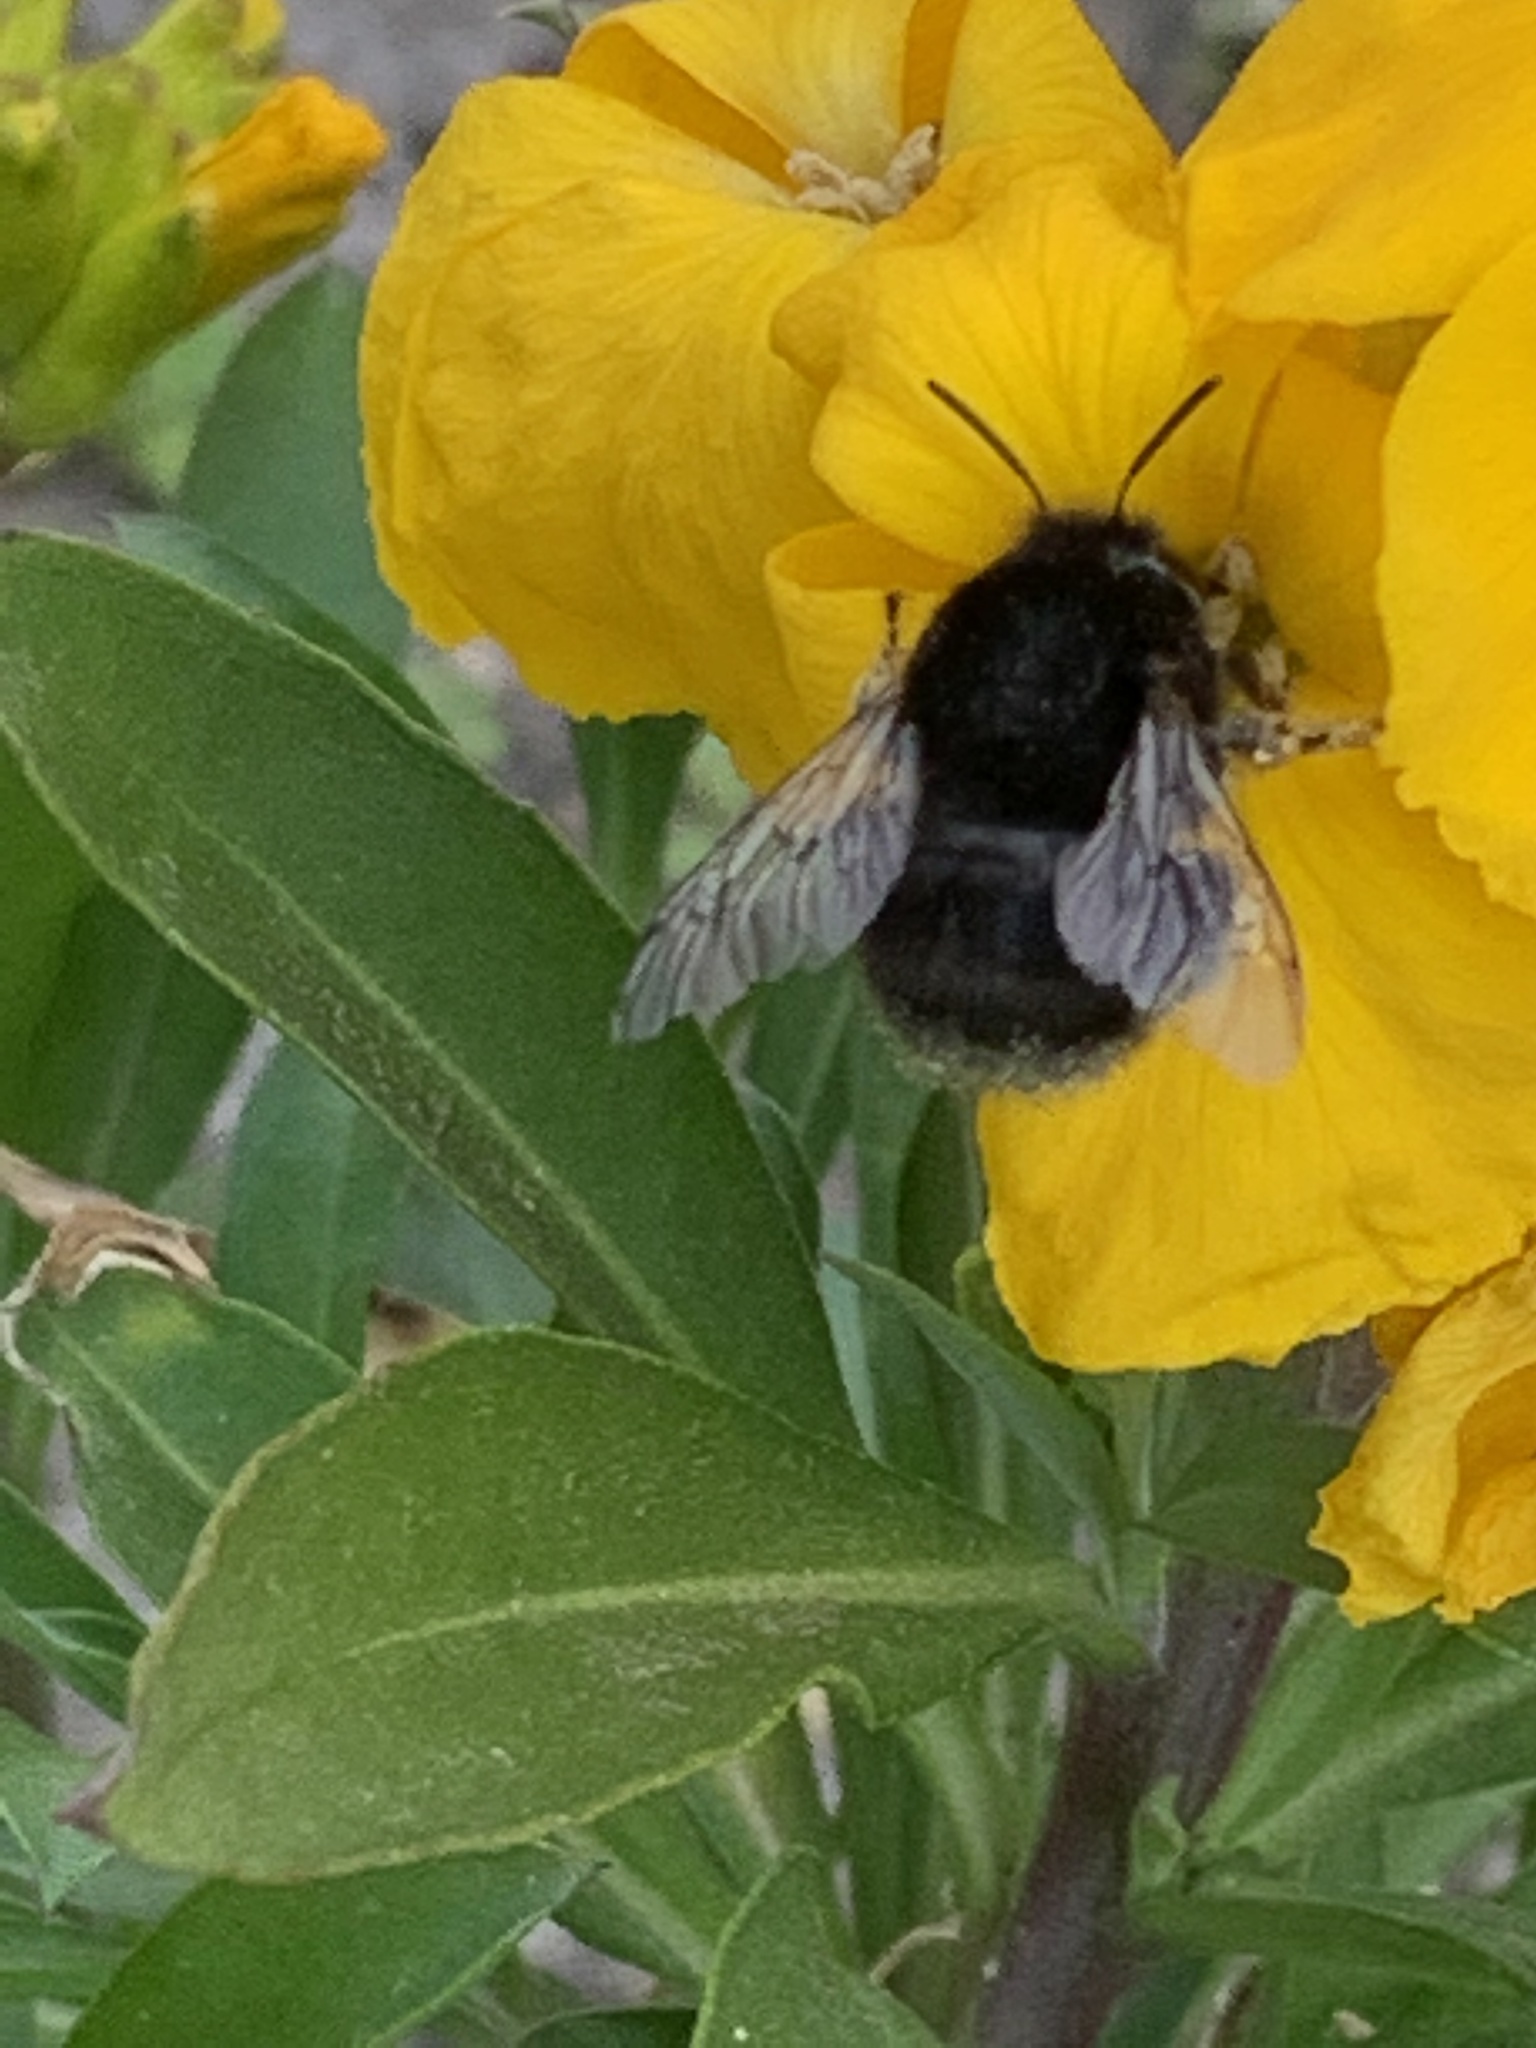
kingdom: Animalia
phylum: Arthropoda
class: Insecta
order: Hymenoptera
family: Apidae
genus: Anthophora
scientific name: Anthophora plumipes
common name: Hairy-footed flower bee
